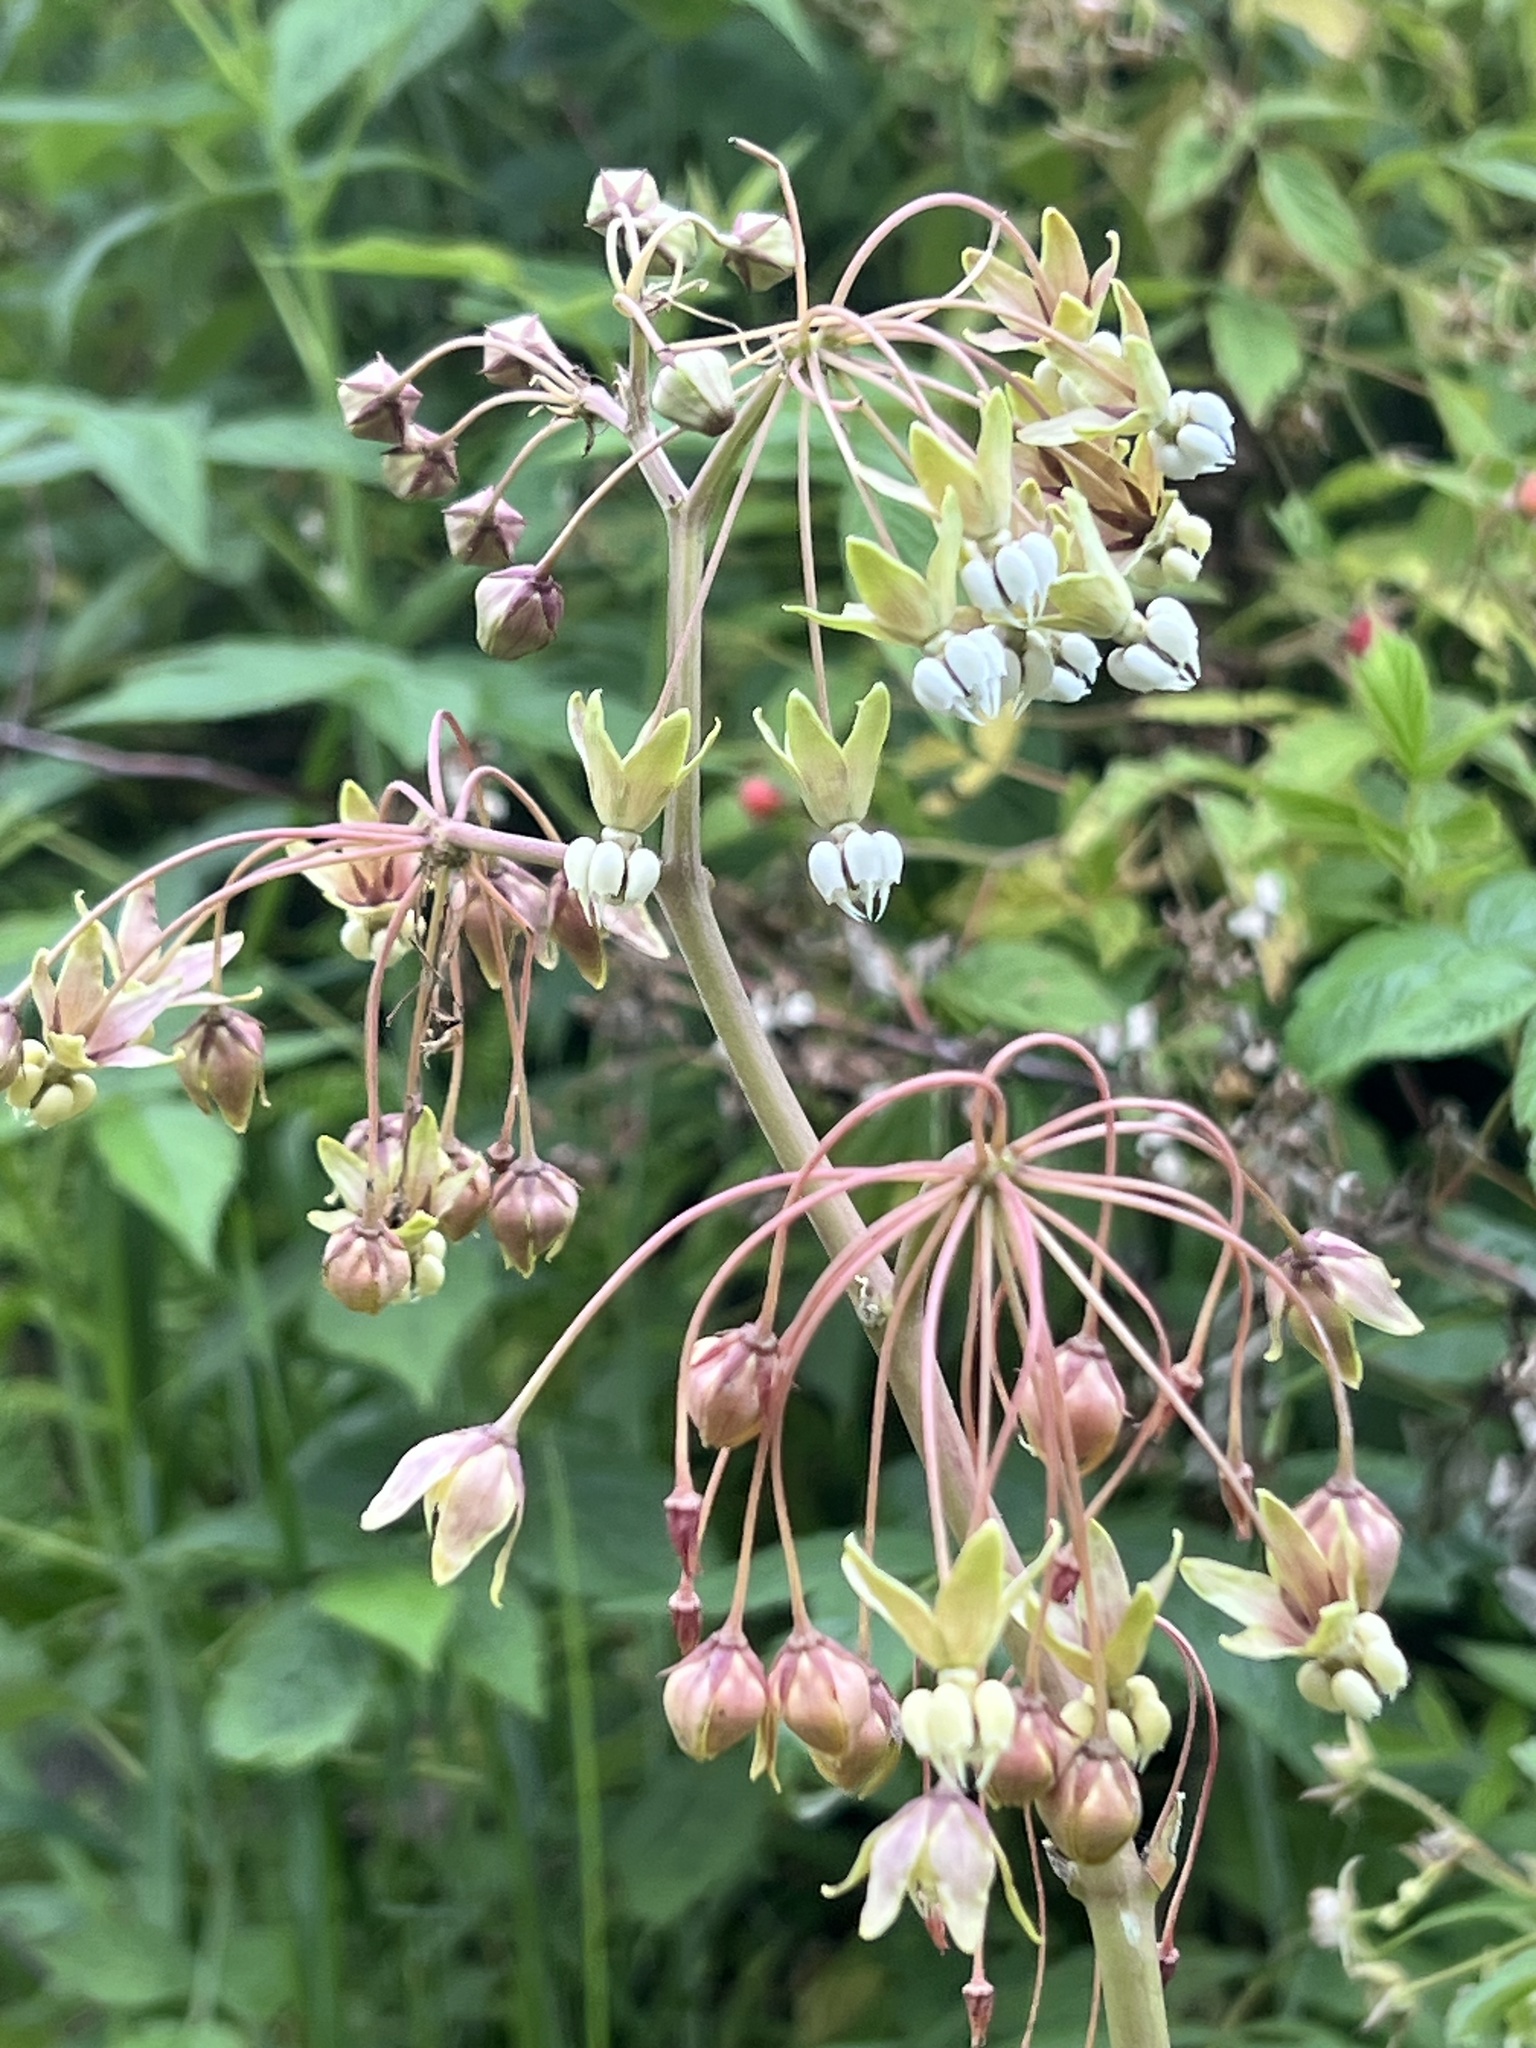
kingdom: Plantae
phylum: Tracheophyta
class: Magnoliopsida
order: Gentianales
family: Apocynaceae
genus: Asclepias
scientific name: Asclepias exaltata
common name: Poke milkweed
